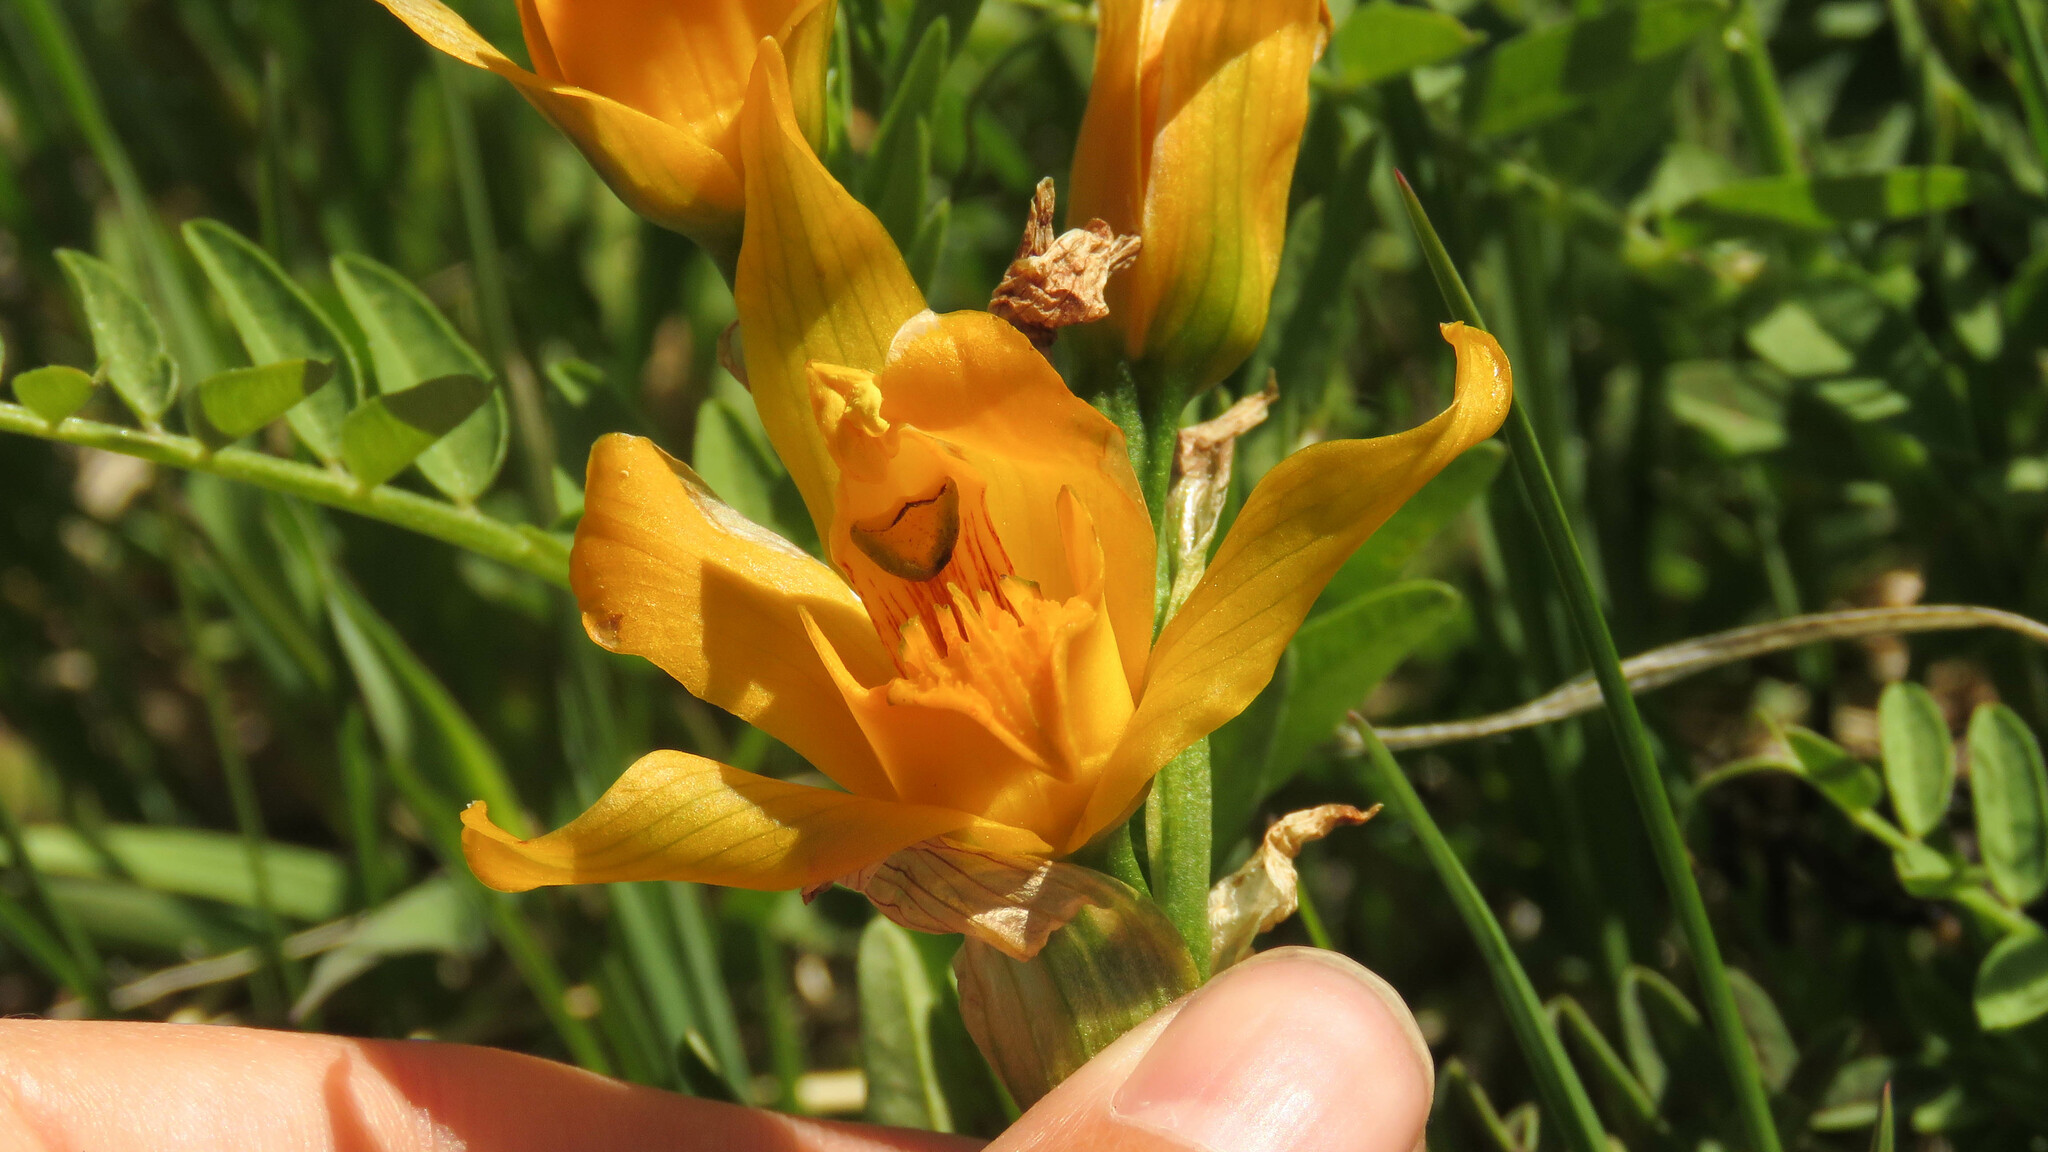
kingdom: Plantae
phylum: Tracheophyta
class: Liliopsida
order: Asparagales
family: Orchidaceae
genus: Chloraea
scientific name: Chloraea alpina
